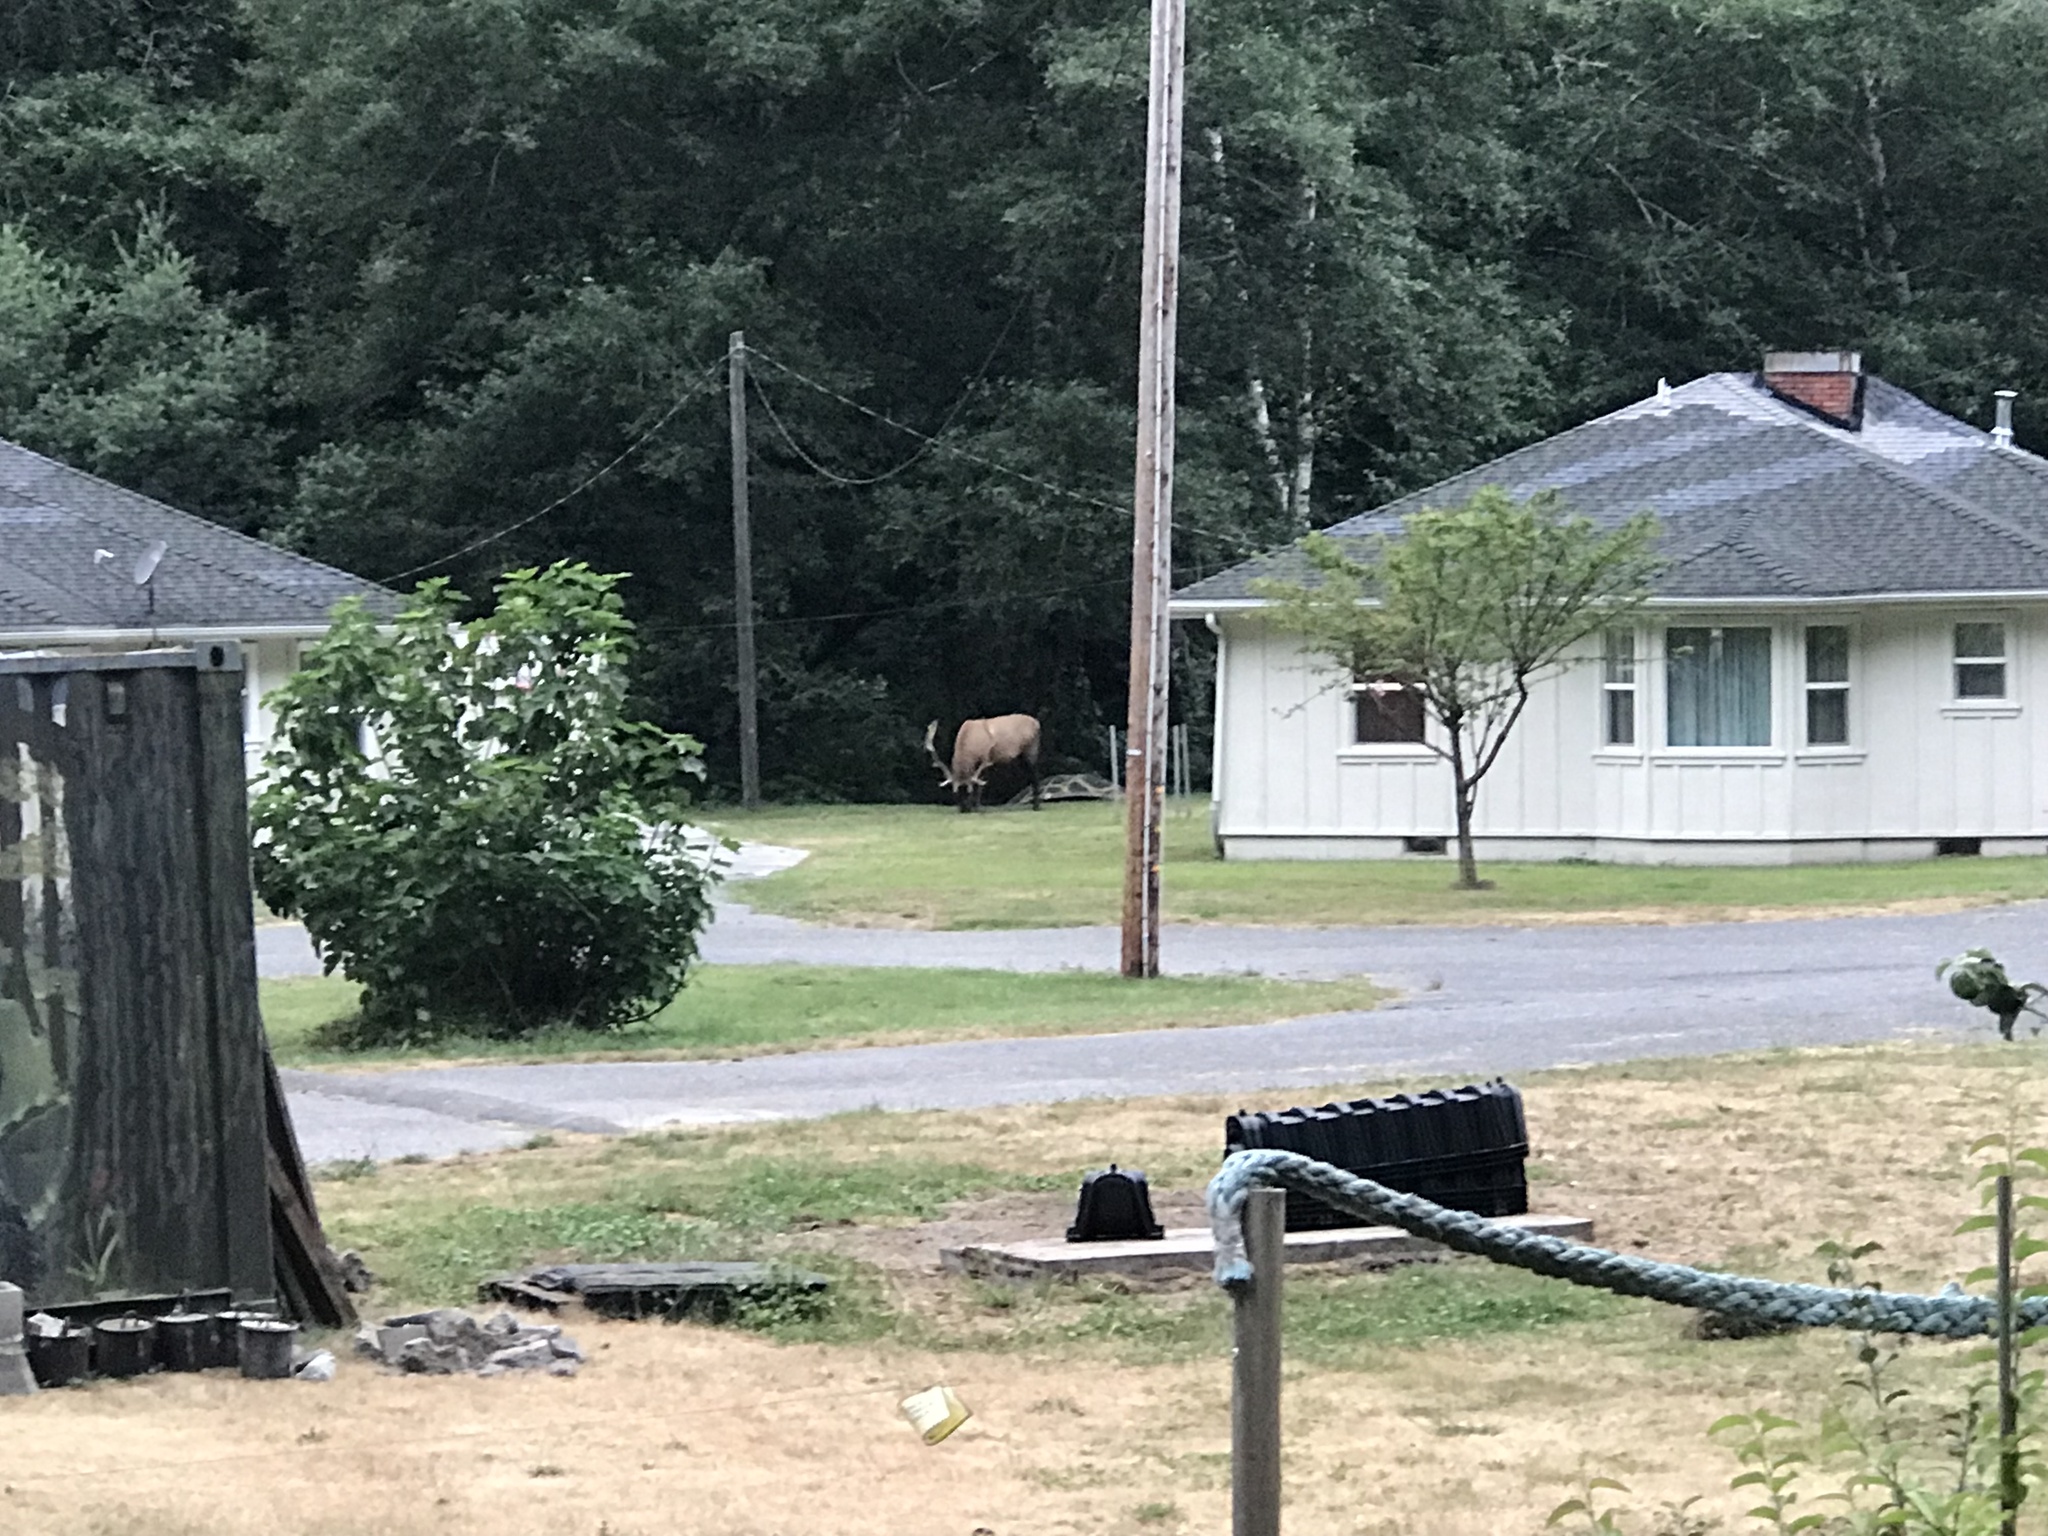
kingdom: Animalia
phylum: Chordata
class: Mammalia
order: Artiodactyla
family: Cervidae
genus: Cervus
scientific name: Cervus elaphus
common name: Red deer
